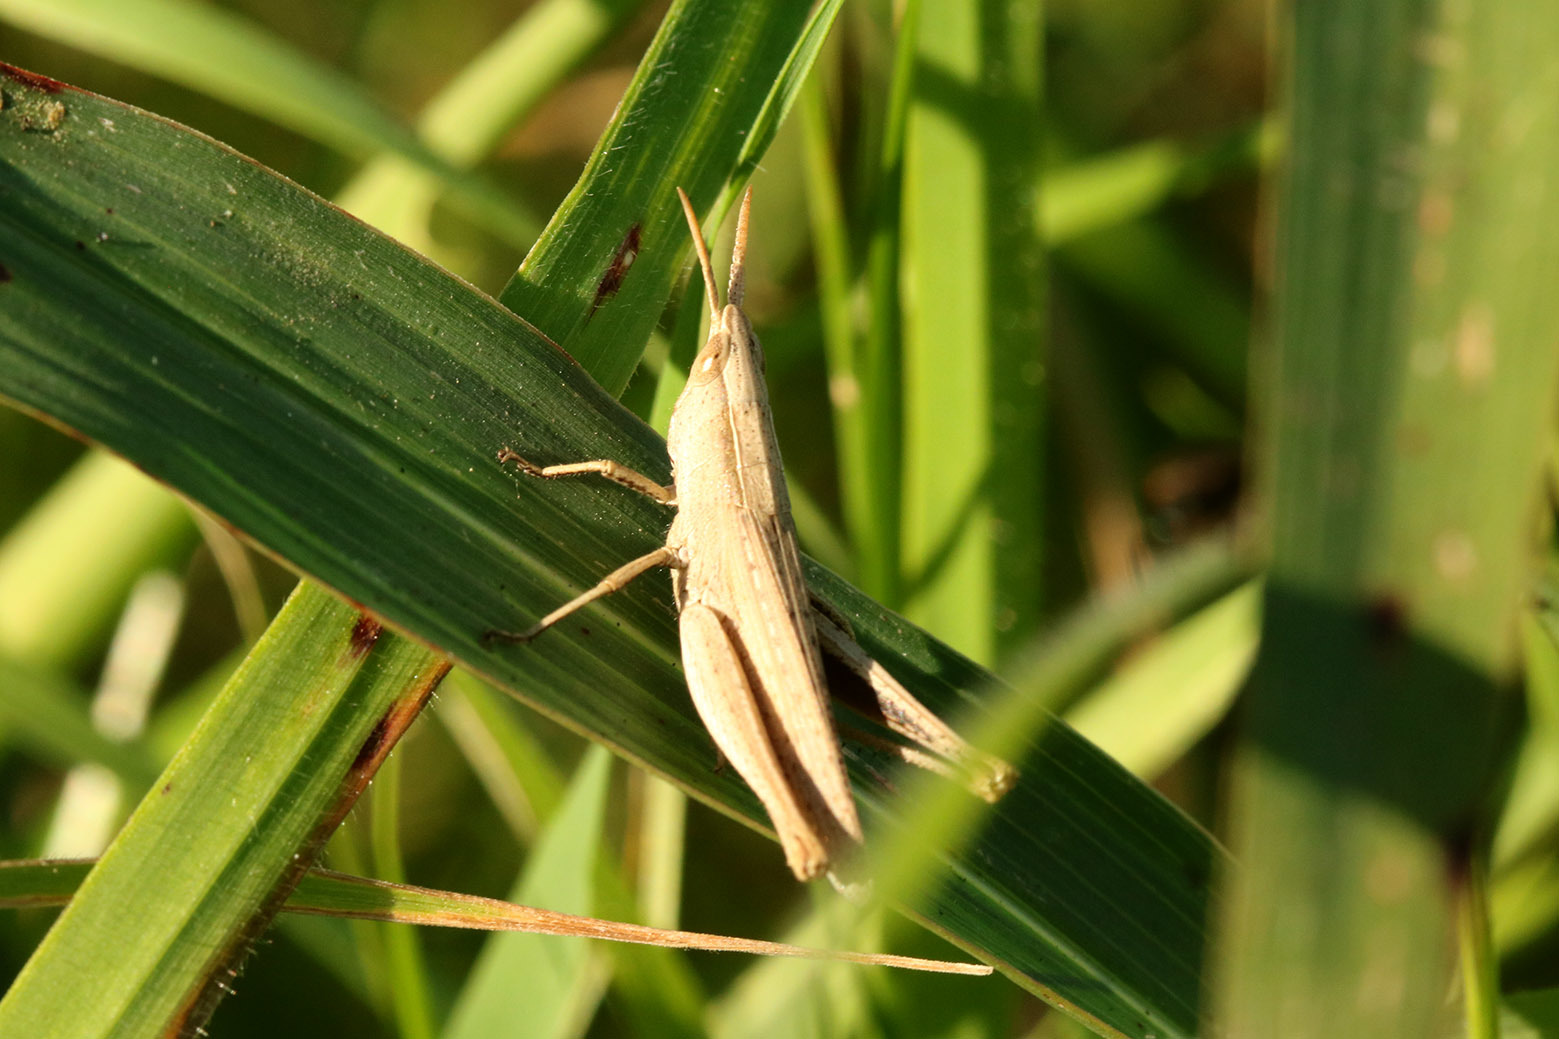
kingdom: Animalia
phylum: Arthropoda
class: Insecta
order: Orthoptera
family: Acrididae
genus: Laplatacris
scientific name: Laplatacris dispar
